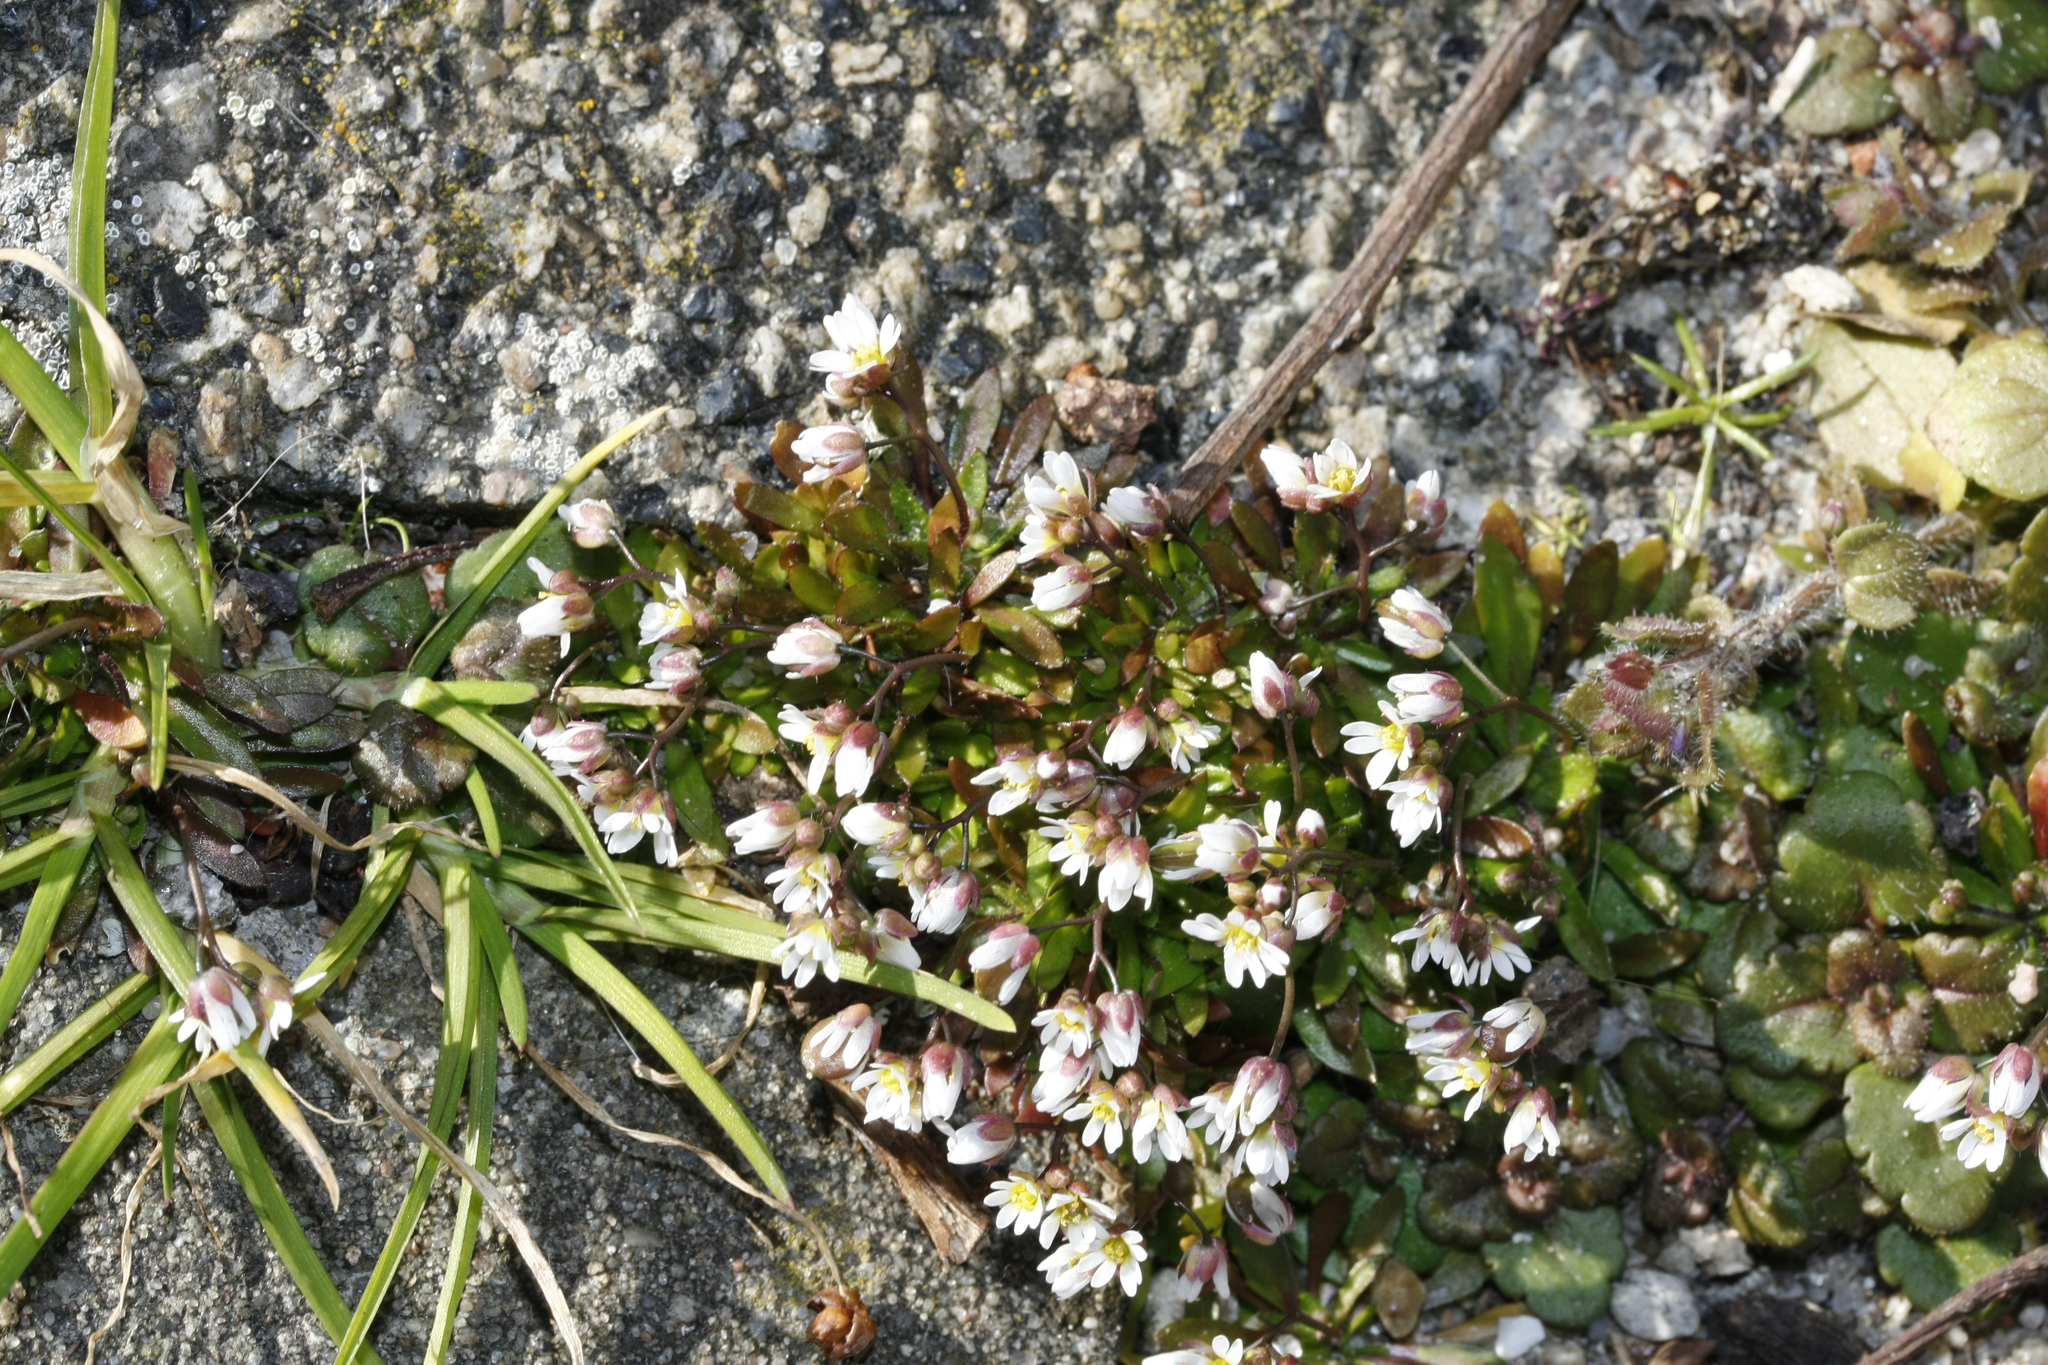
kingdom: Plantae
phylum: Tracheophyta
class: Magnoliopsida
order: Brassicales
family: Brassicaceae
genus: Draba
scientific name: Draba verna
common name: Spring draba
